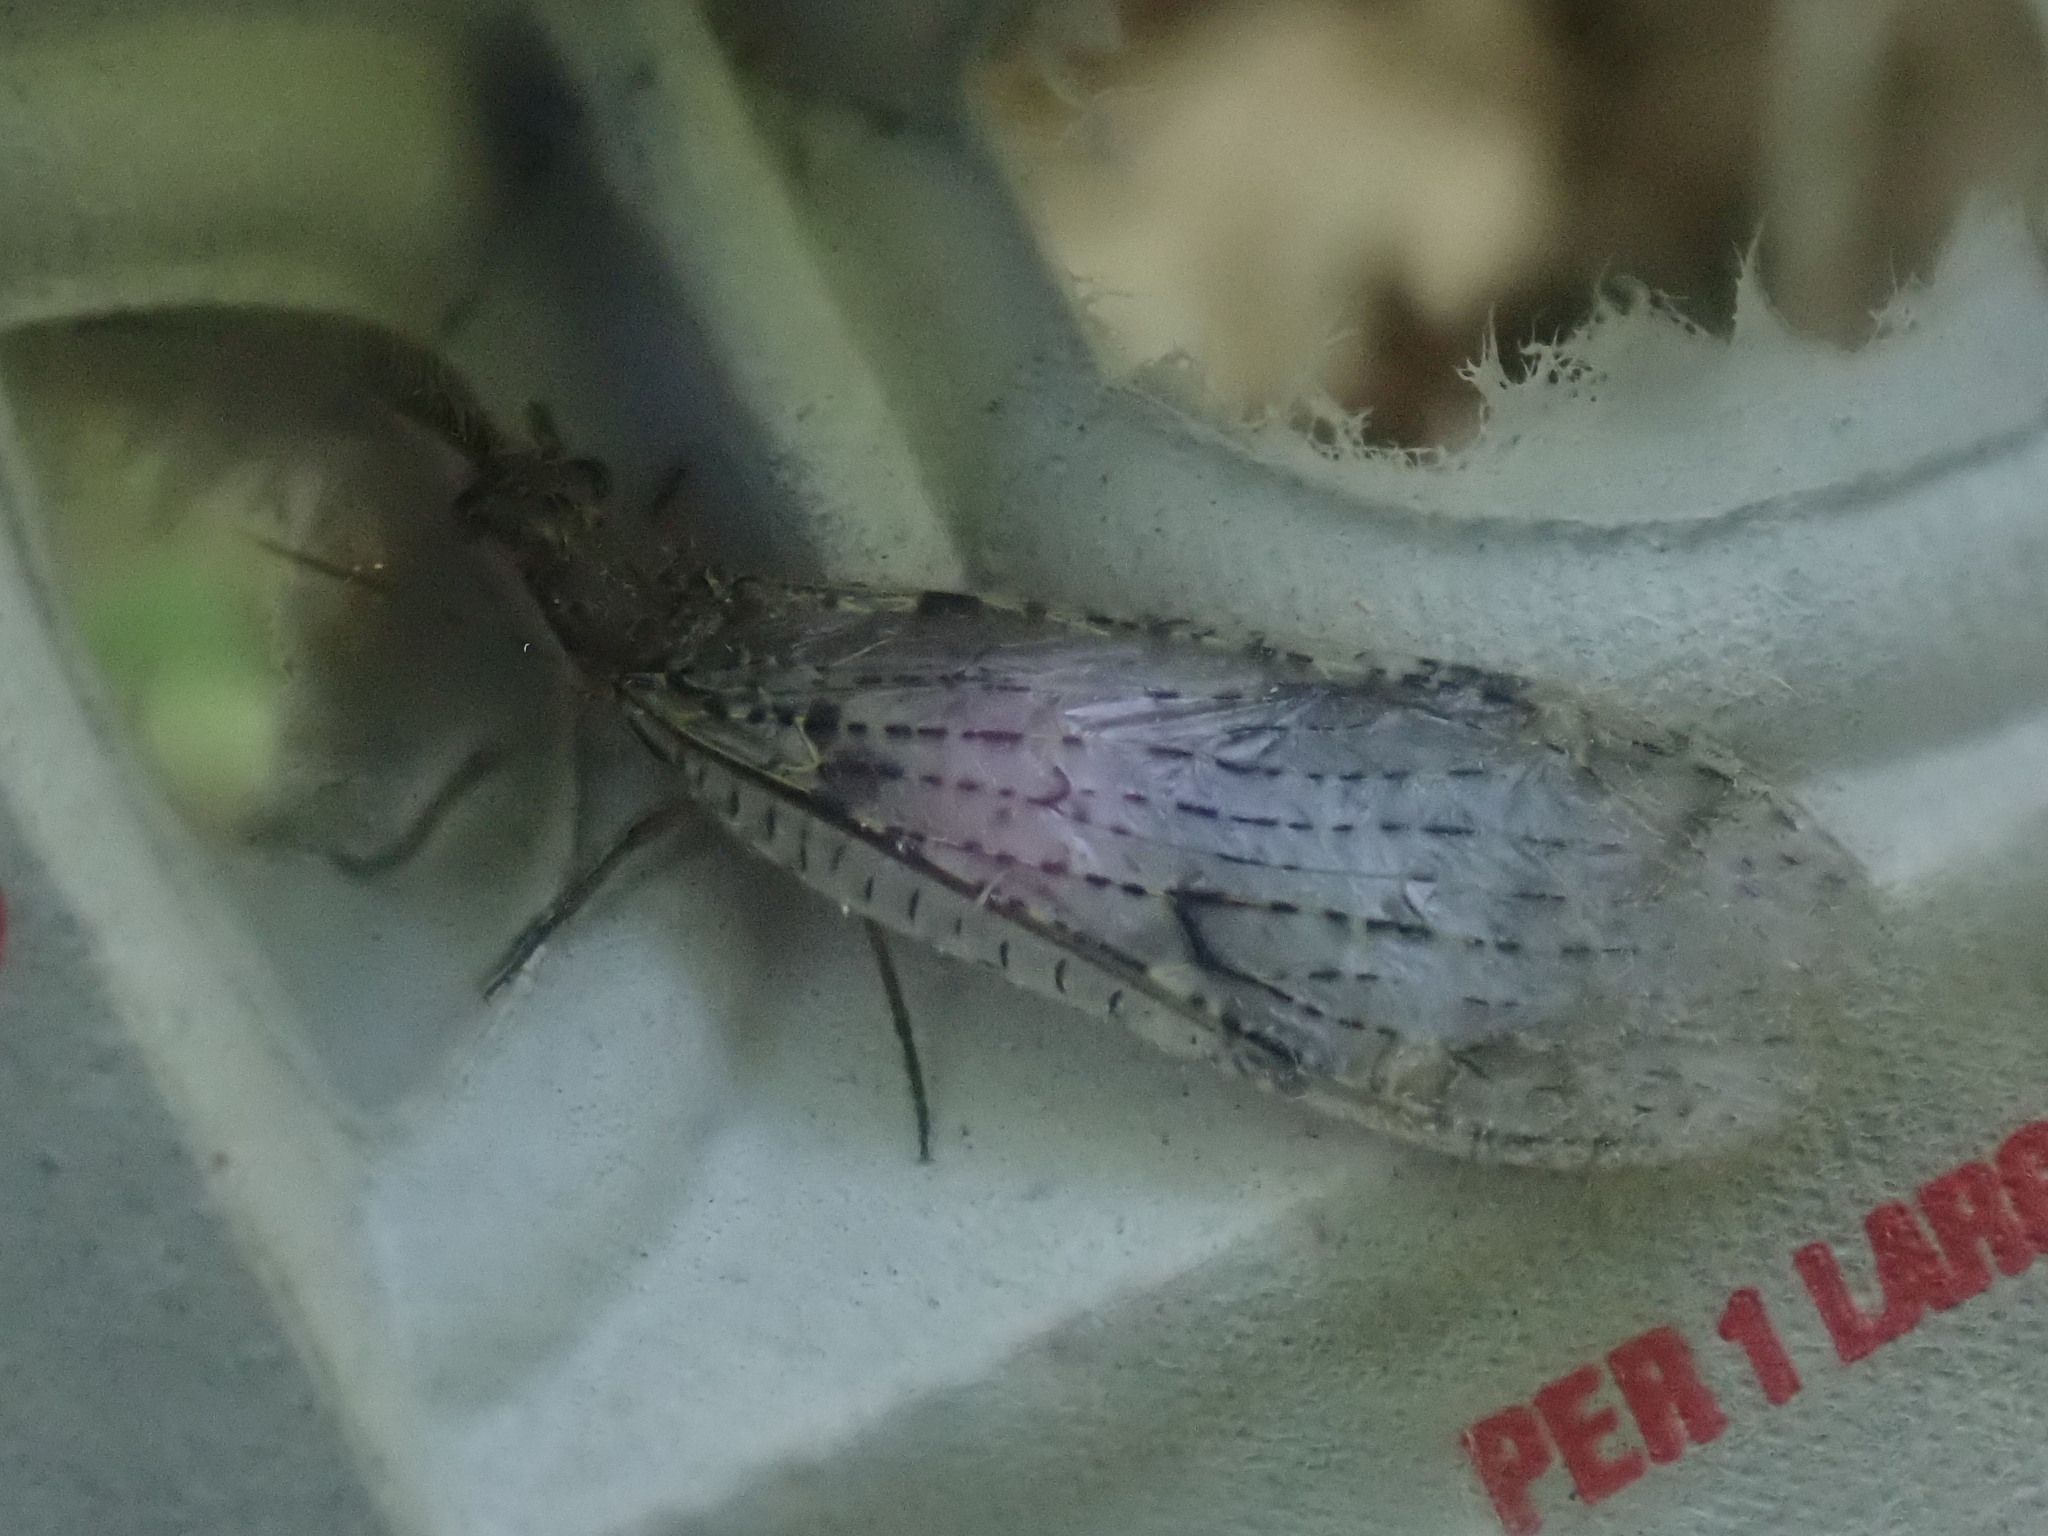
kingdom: Animalia
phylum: Arthropoda
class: Insecta
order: Megaloptera
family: Corydalidae
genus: Chauliodes
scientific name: Chauliodes rastricornis
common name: Spring fishfly
